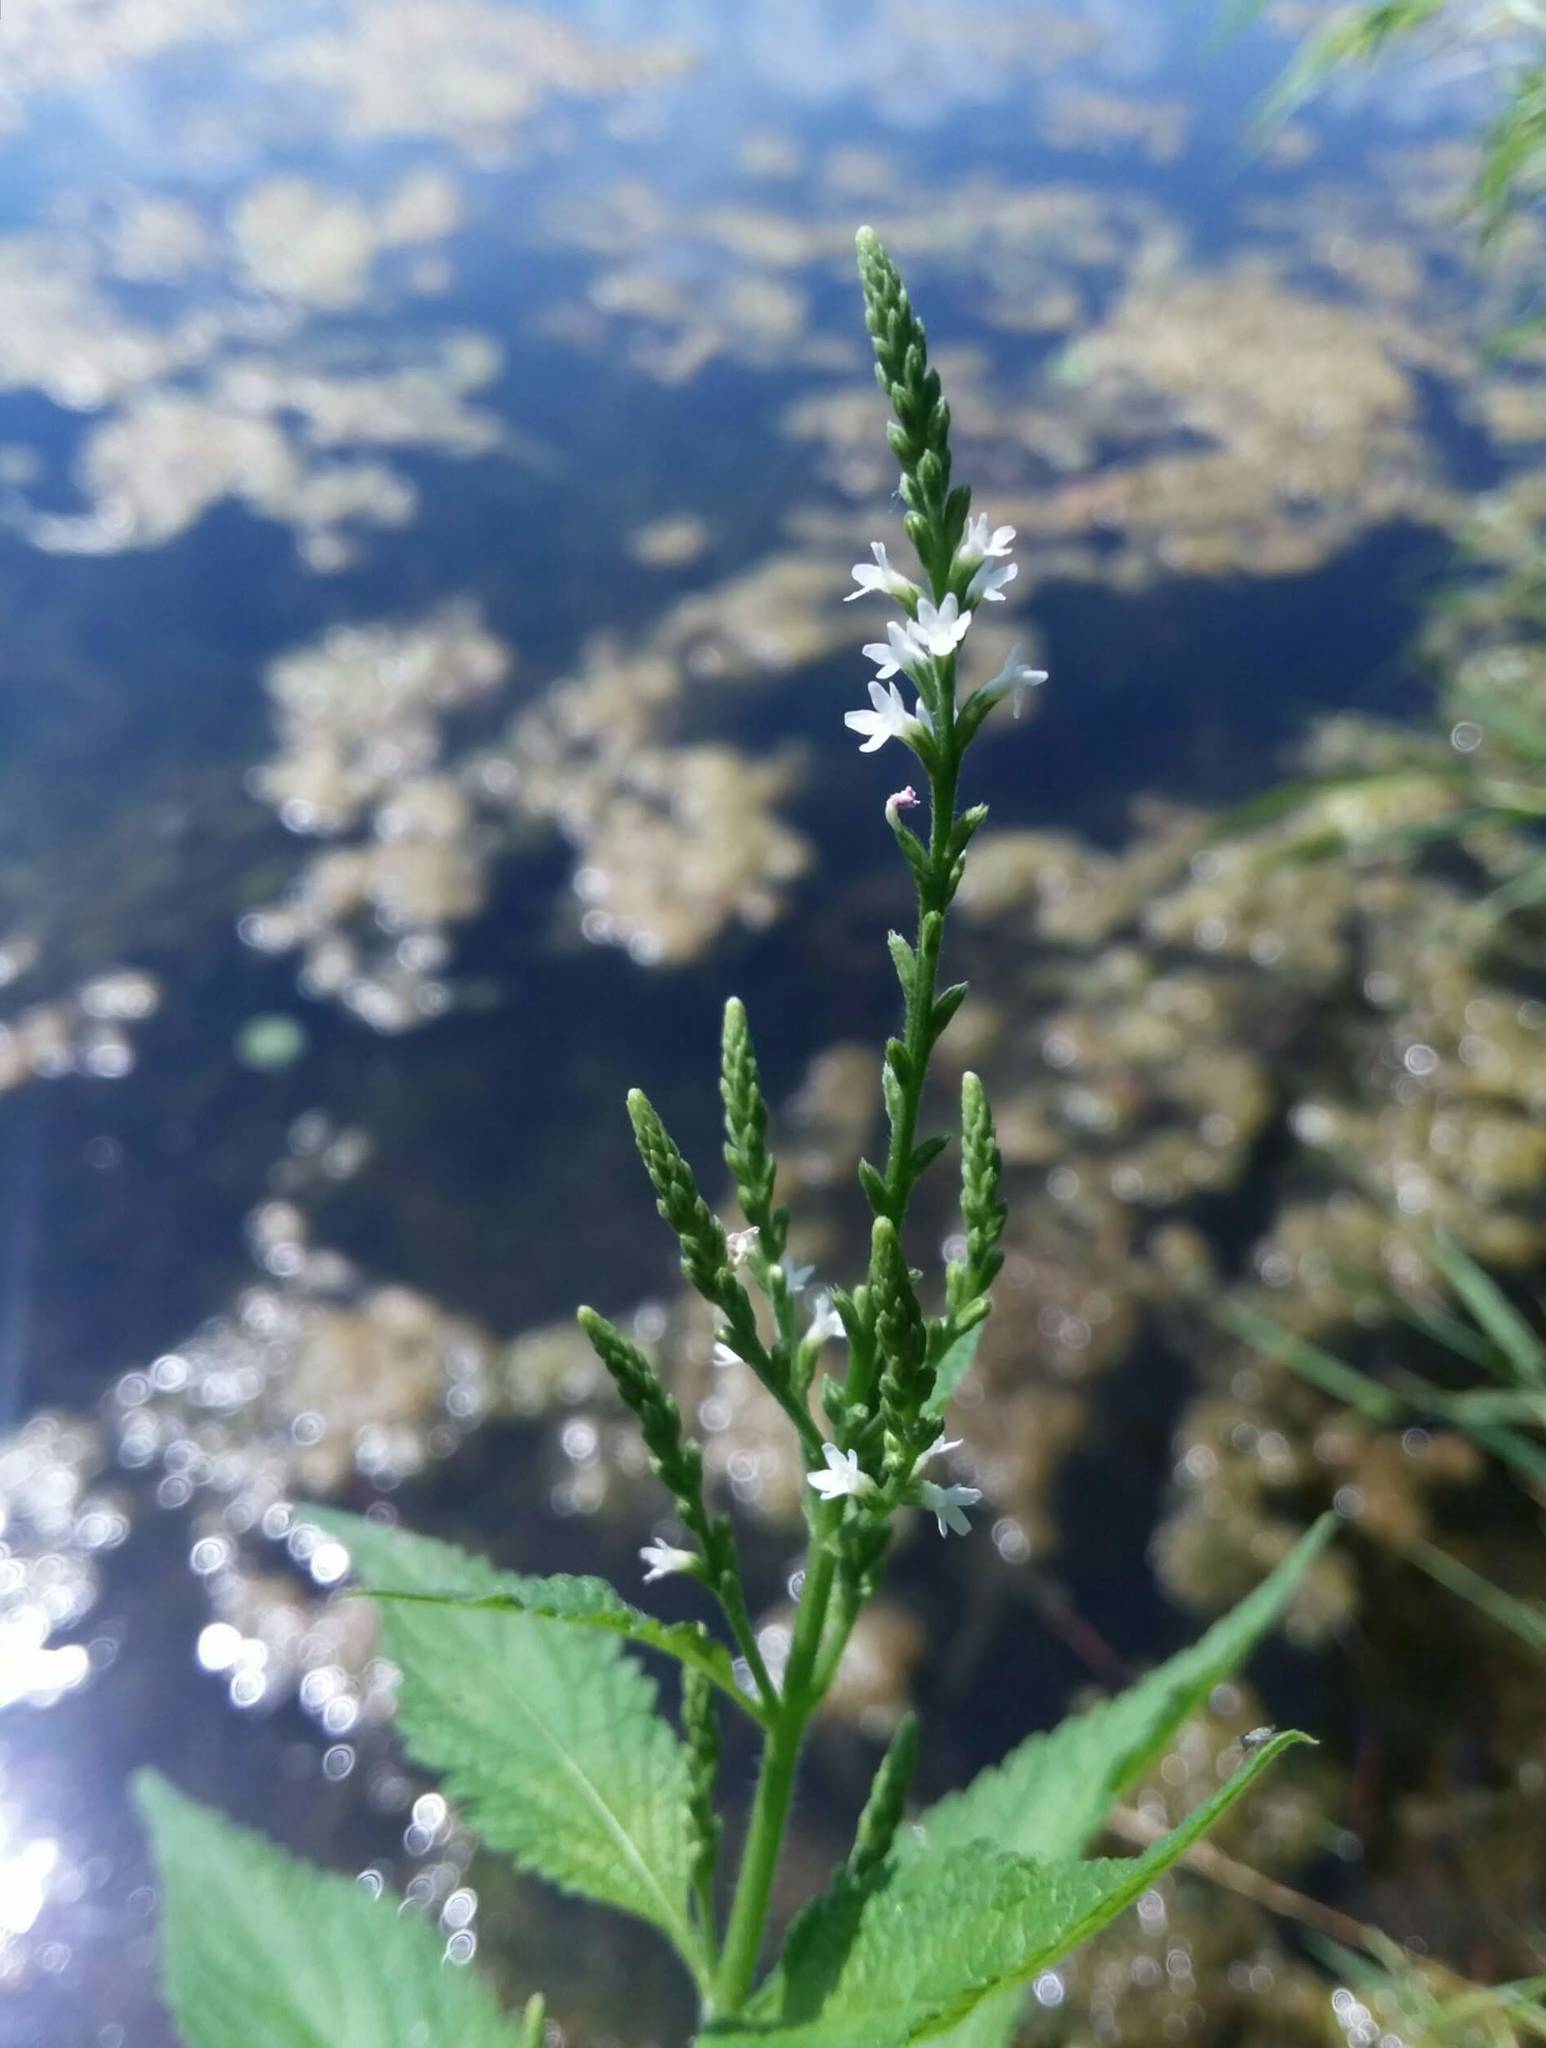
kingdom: Plantae
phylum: Tracheophyta
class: Magnoliopsida
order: Lamiales
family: Verbenaceae
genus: Verbena
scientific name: Verbena urticifolia
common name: Nettle-leaved vervain
